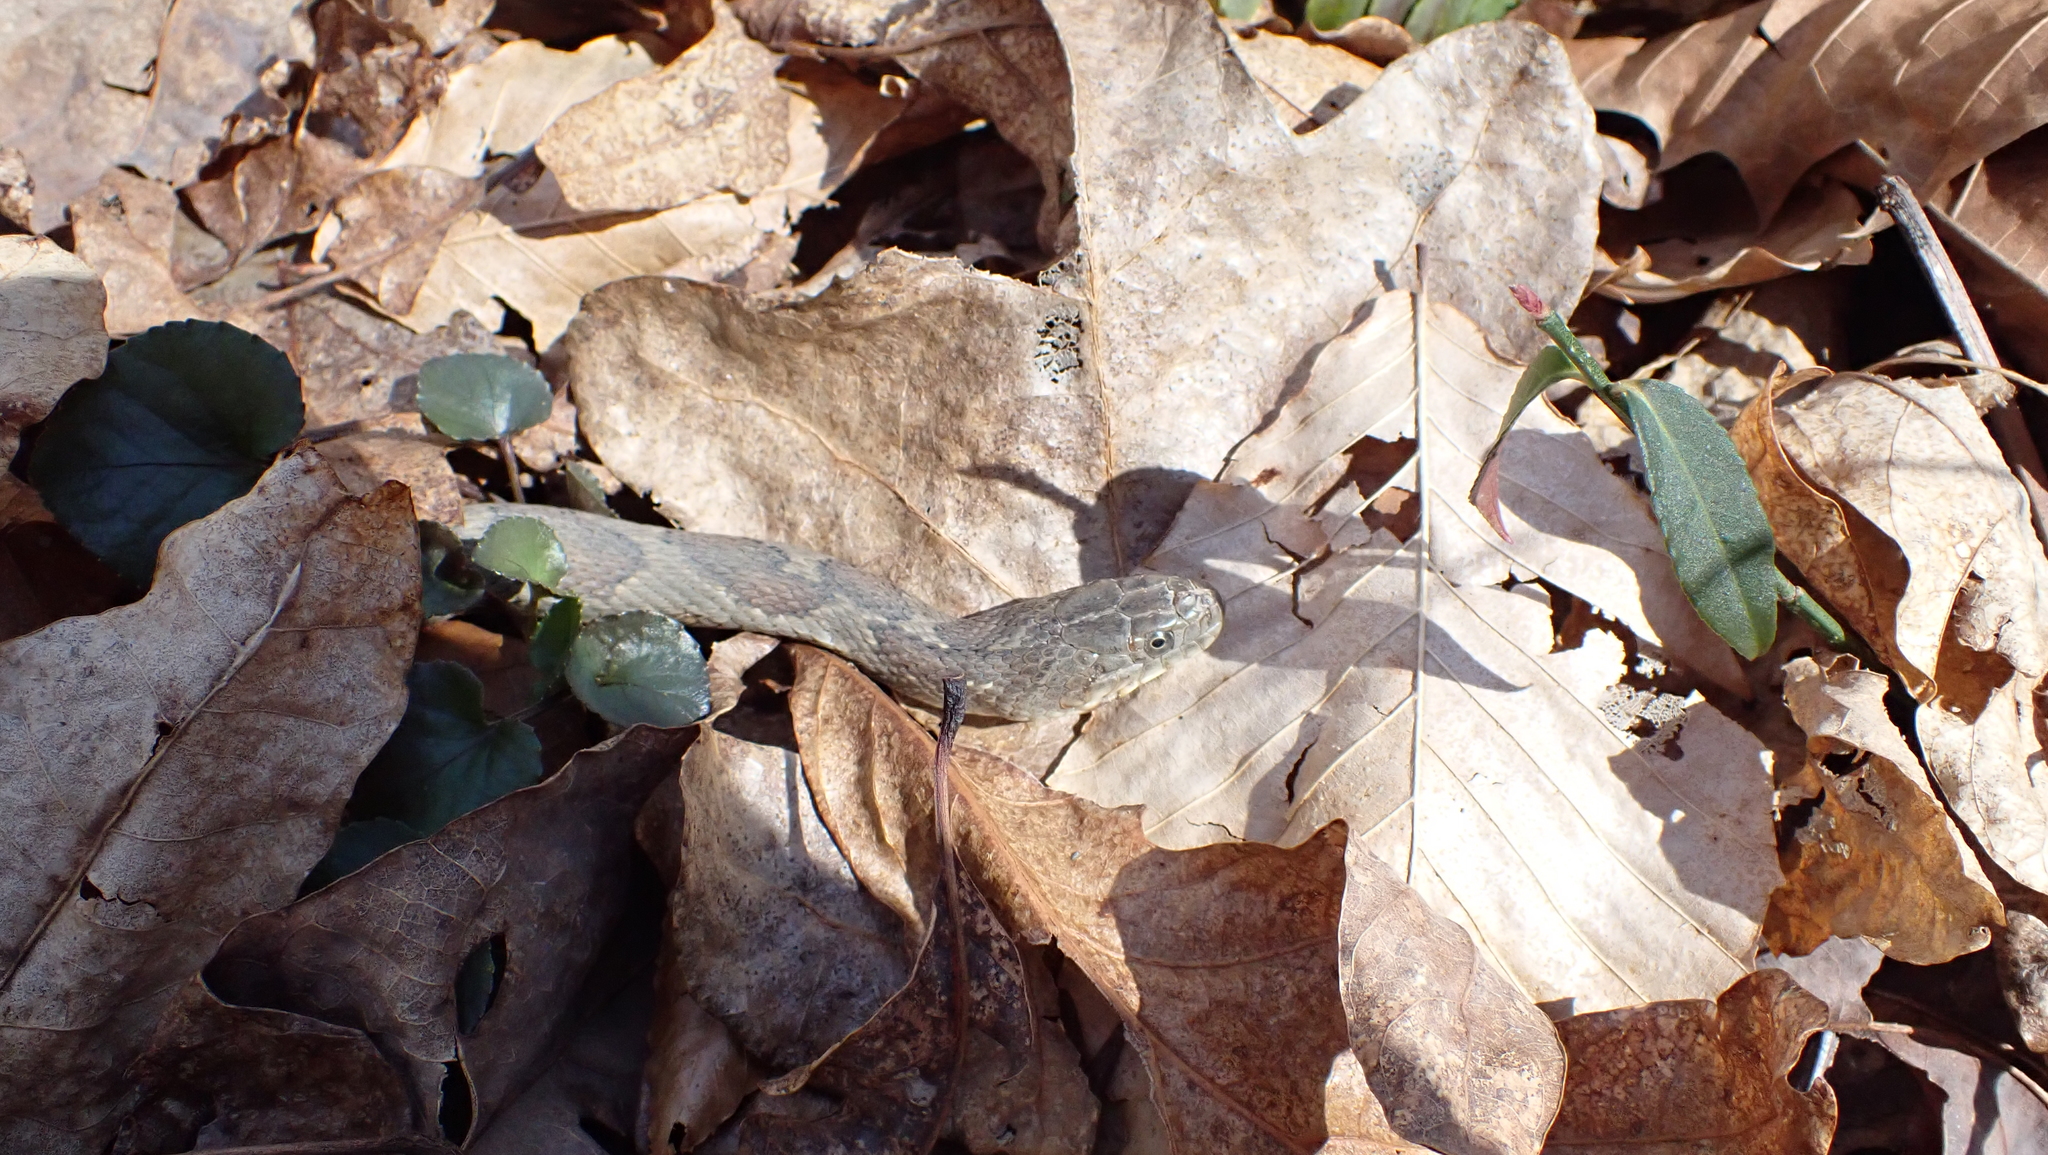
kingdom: Animalia
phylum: Chordata
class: Squamata
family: Colubridae
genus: Nerodia
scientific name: Nerodia sipedon
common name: Northern water snake
